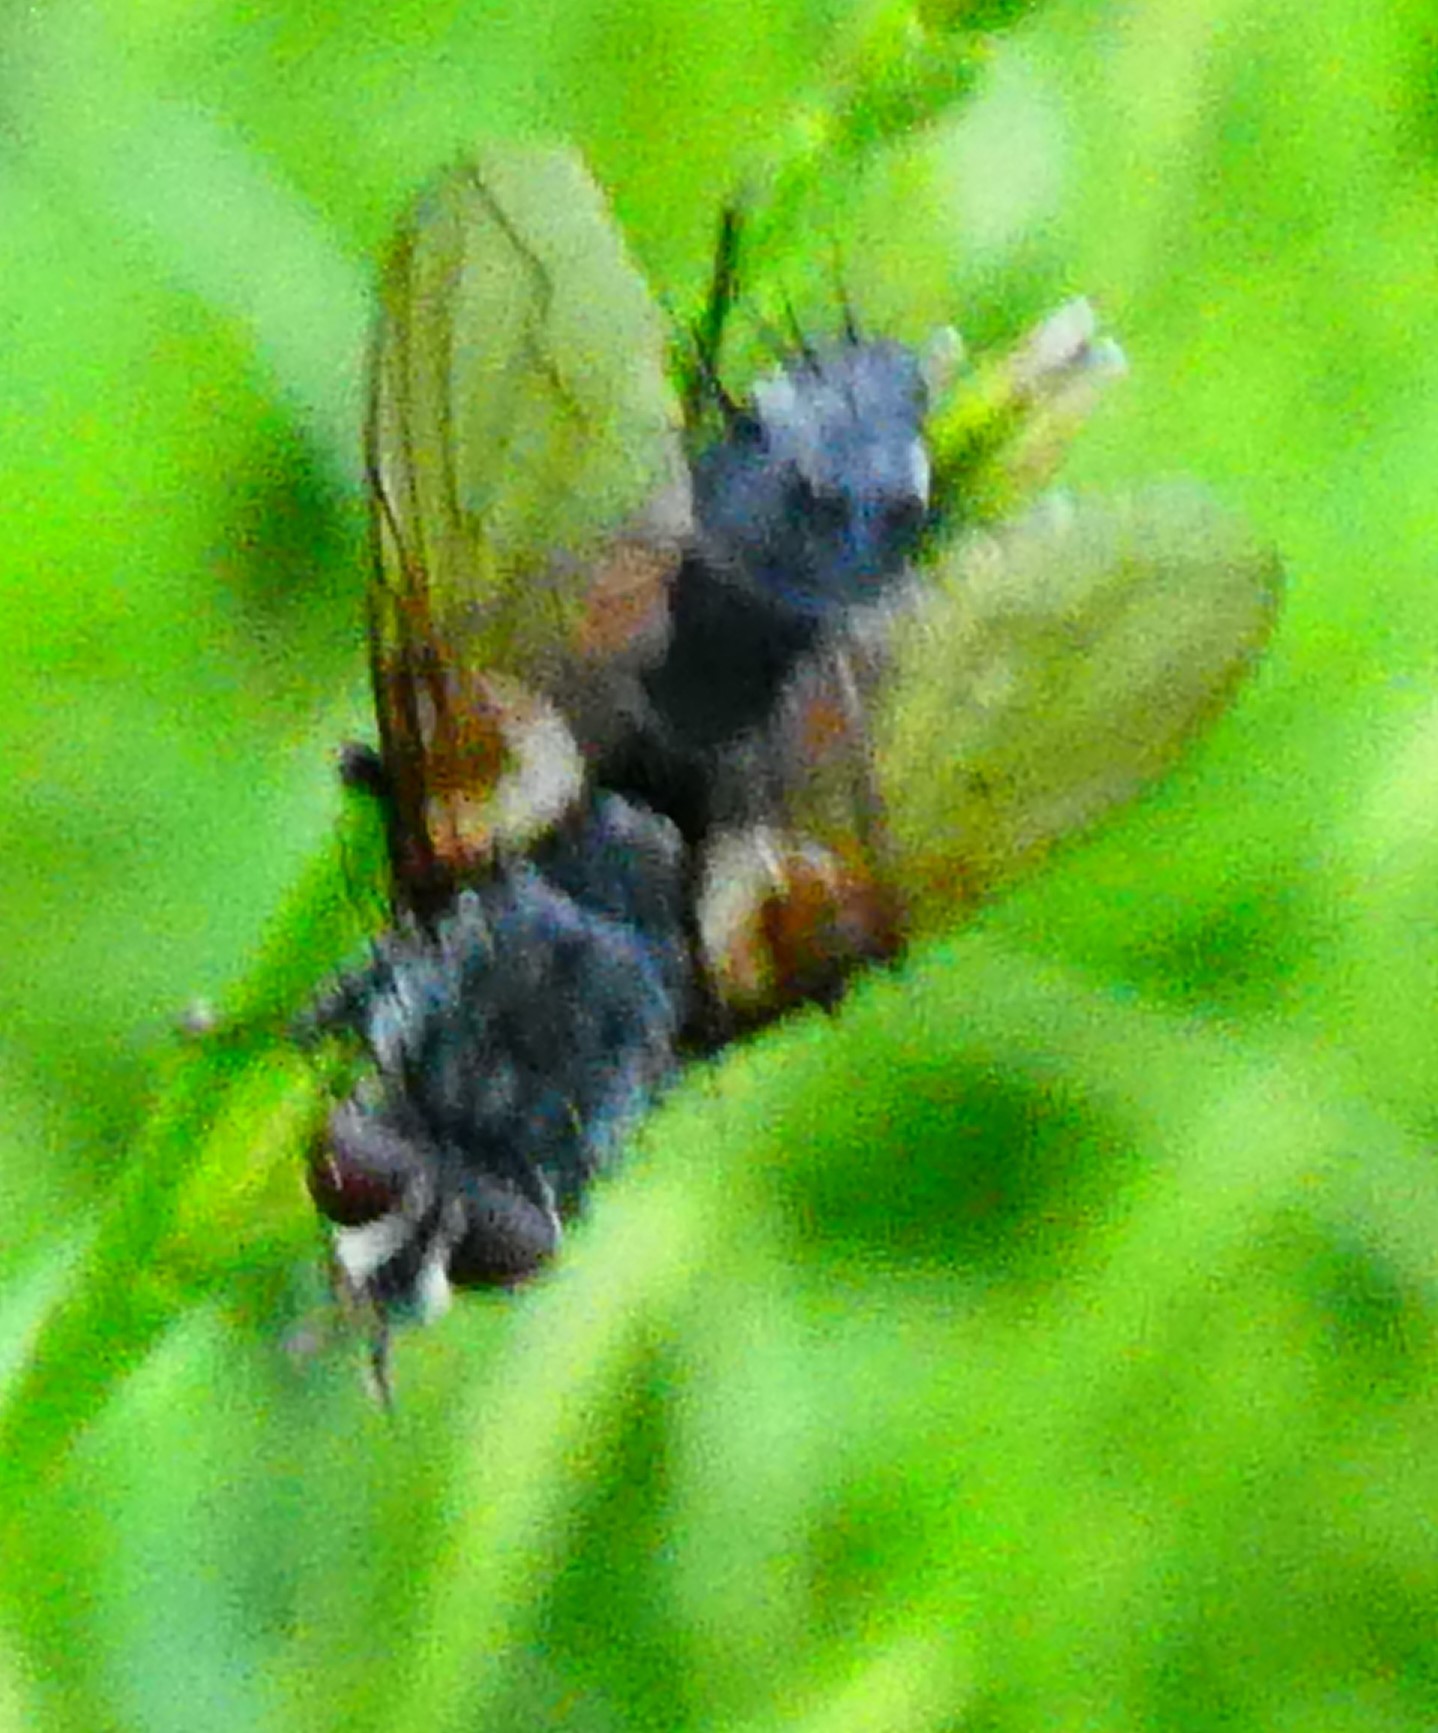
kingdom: Animalia
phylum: Arthropoda
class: Insecta
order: Diptera
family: Tachinidae
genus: Eriothrix
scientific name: Eriothrix rufomaculatus
